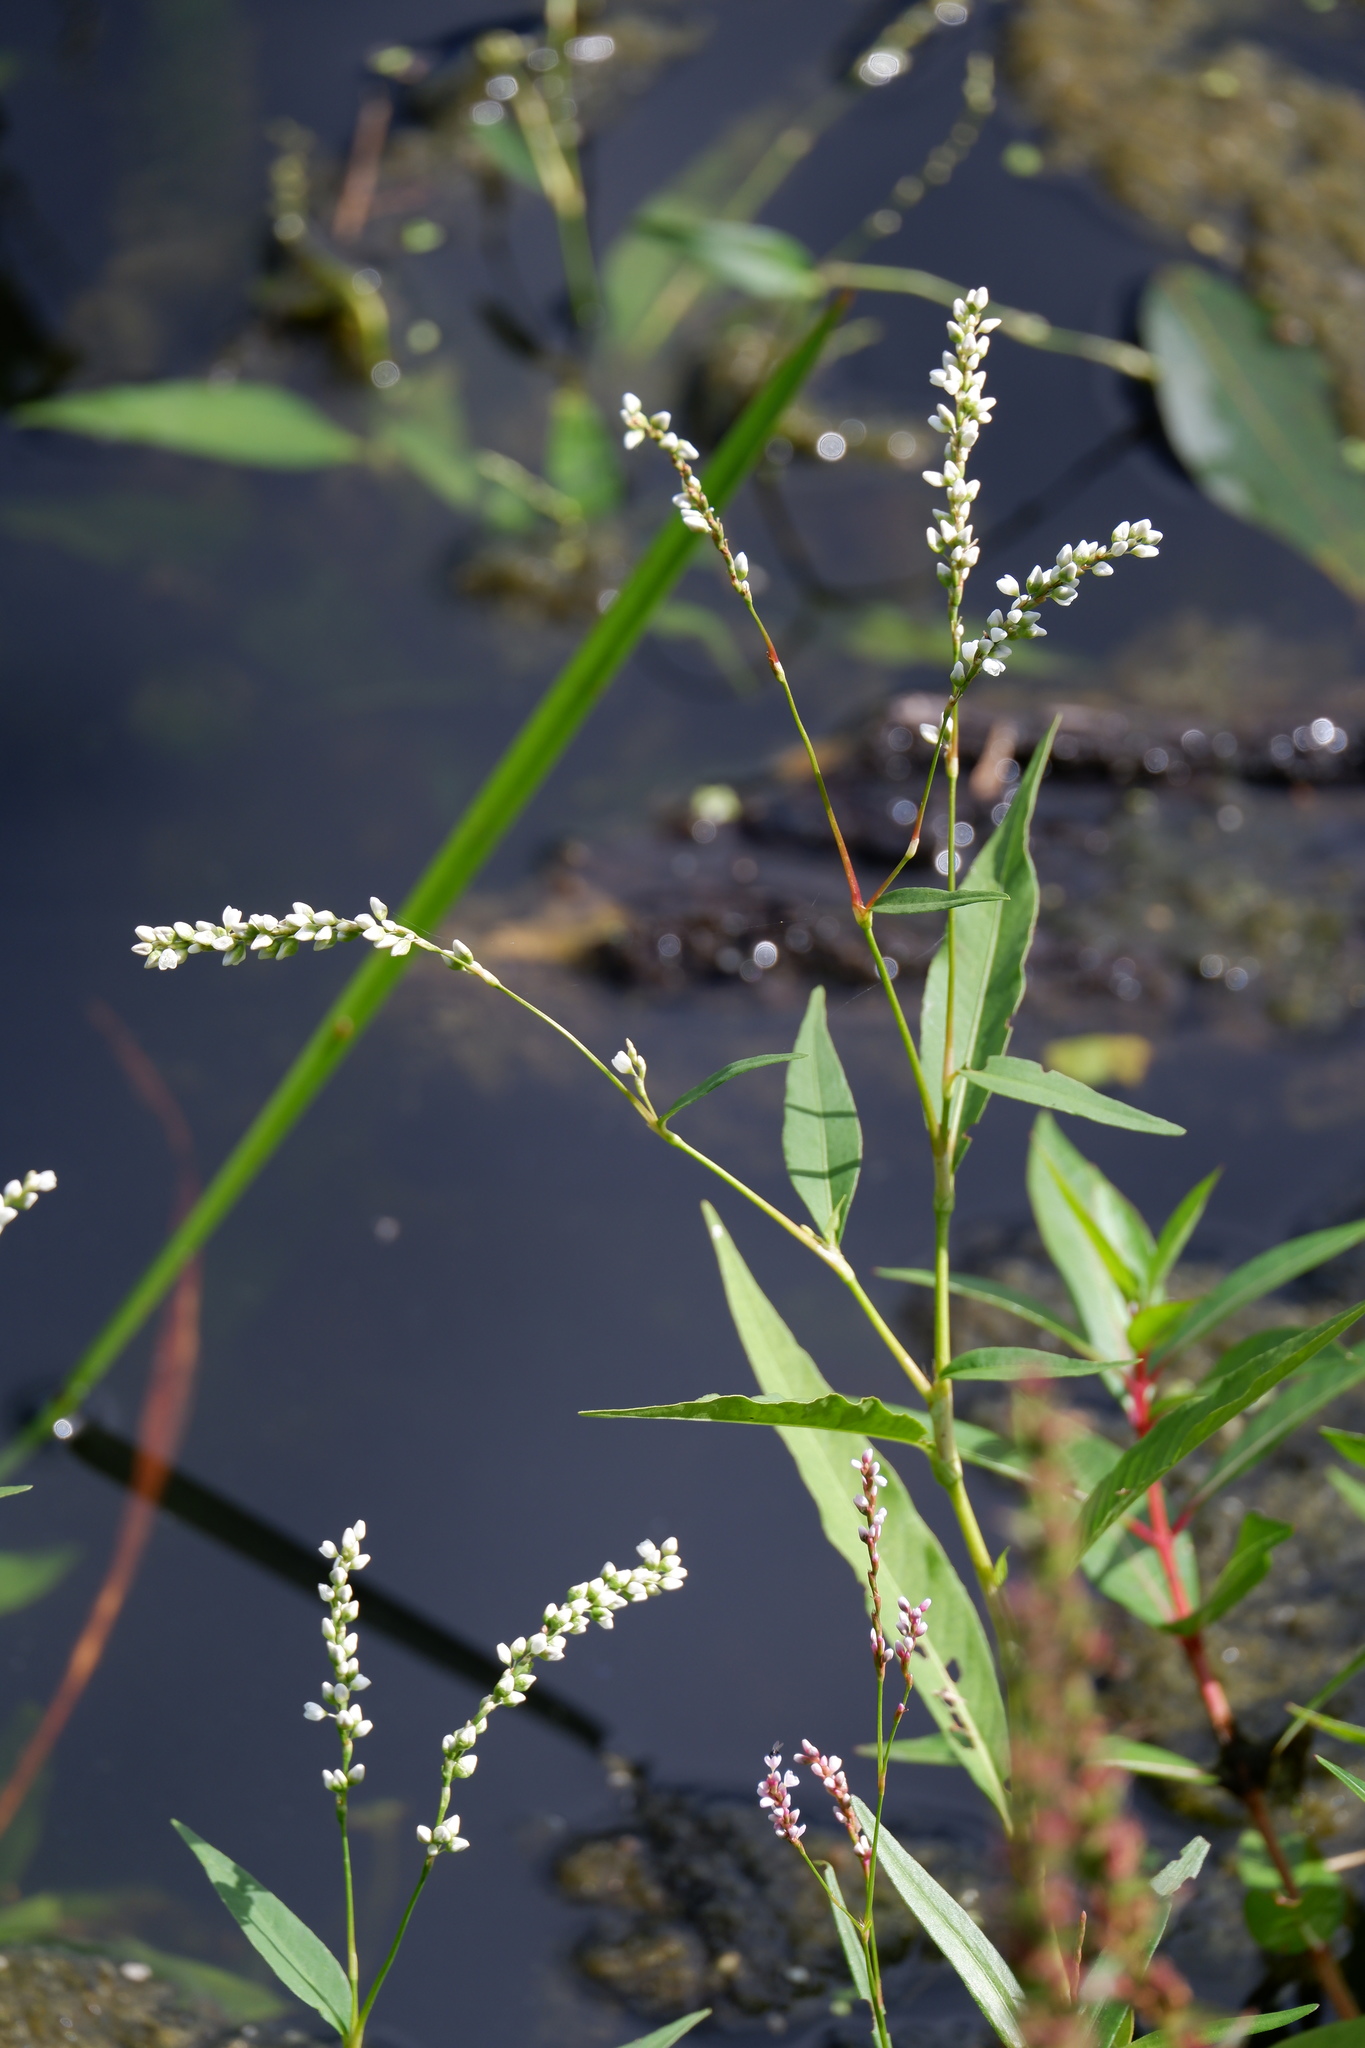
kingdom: Plantae
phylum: Tracheophyta
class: Magnoliopsida
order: Caryophyllales
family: Polygonaceae
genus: Persicaria
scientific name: Persicaria hydropiperoides
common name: Swamp smartweed
